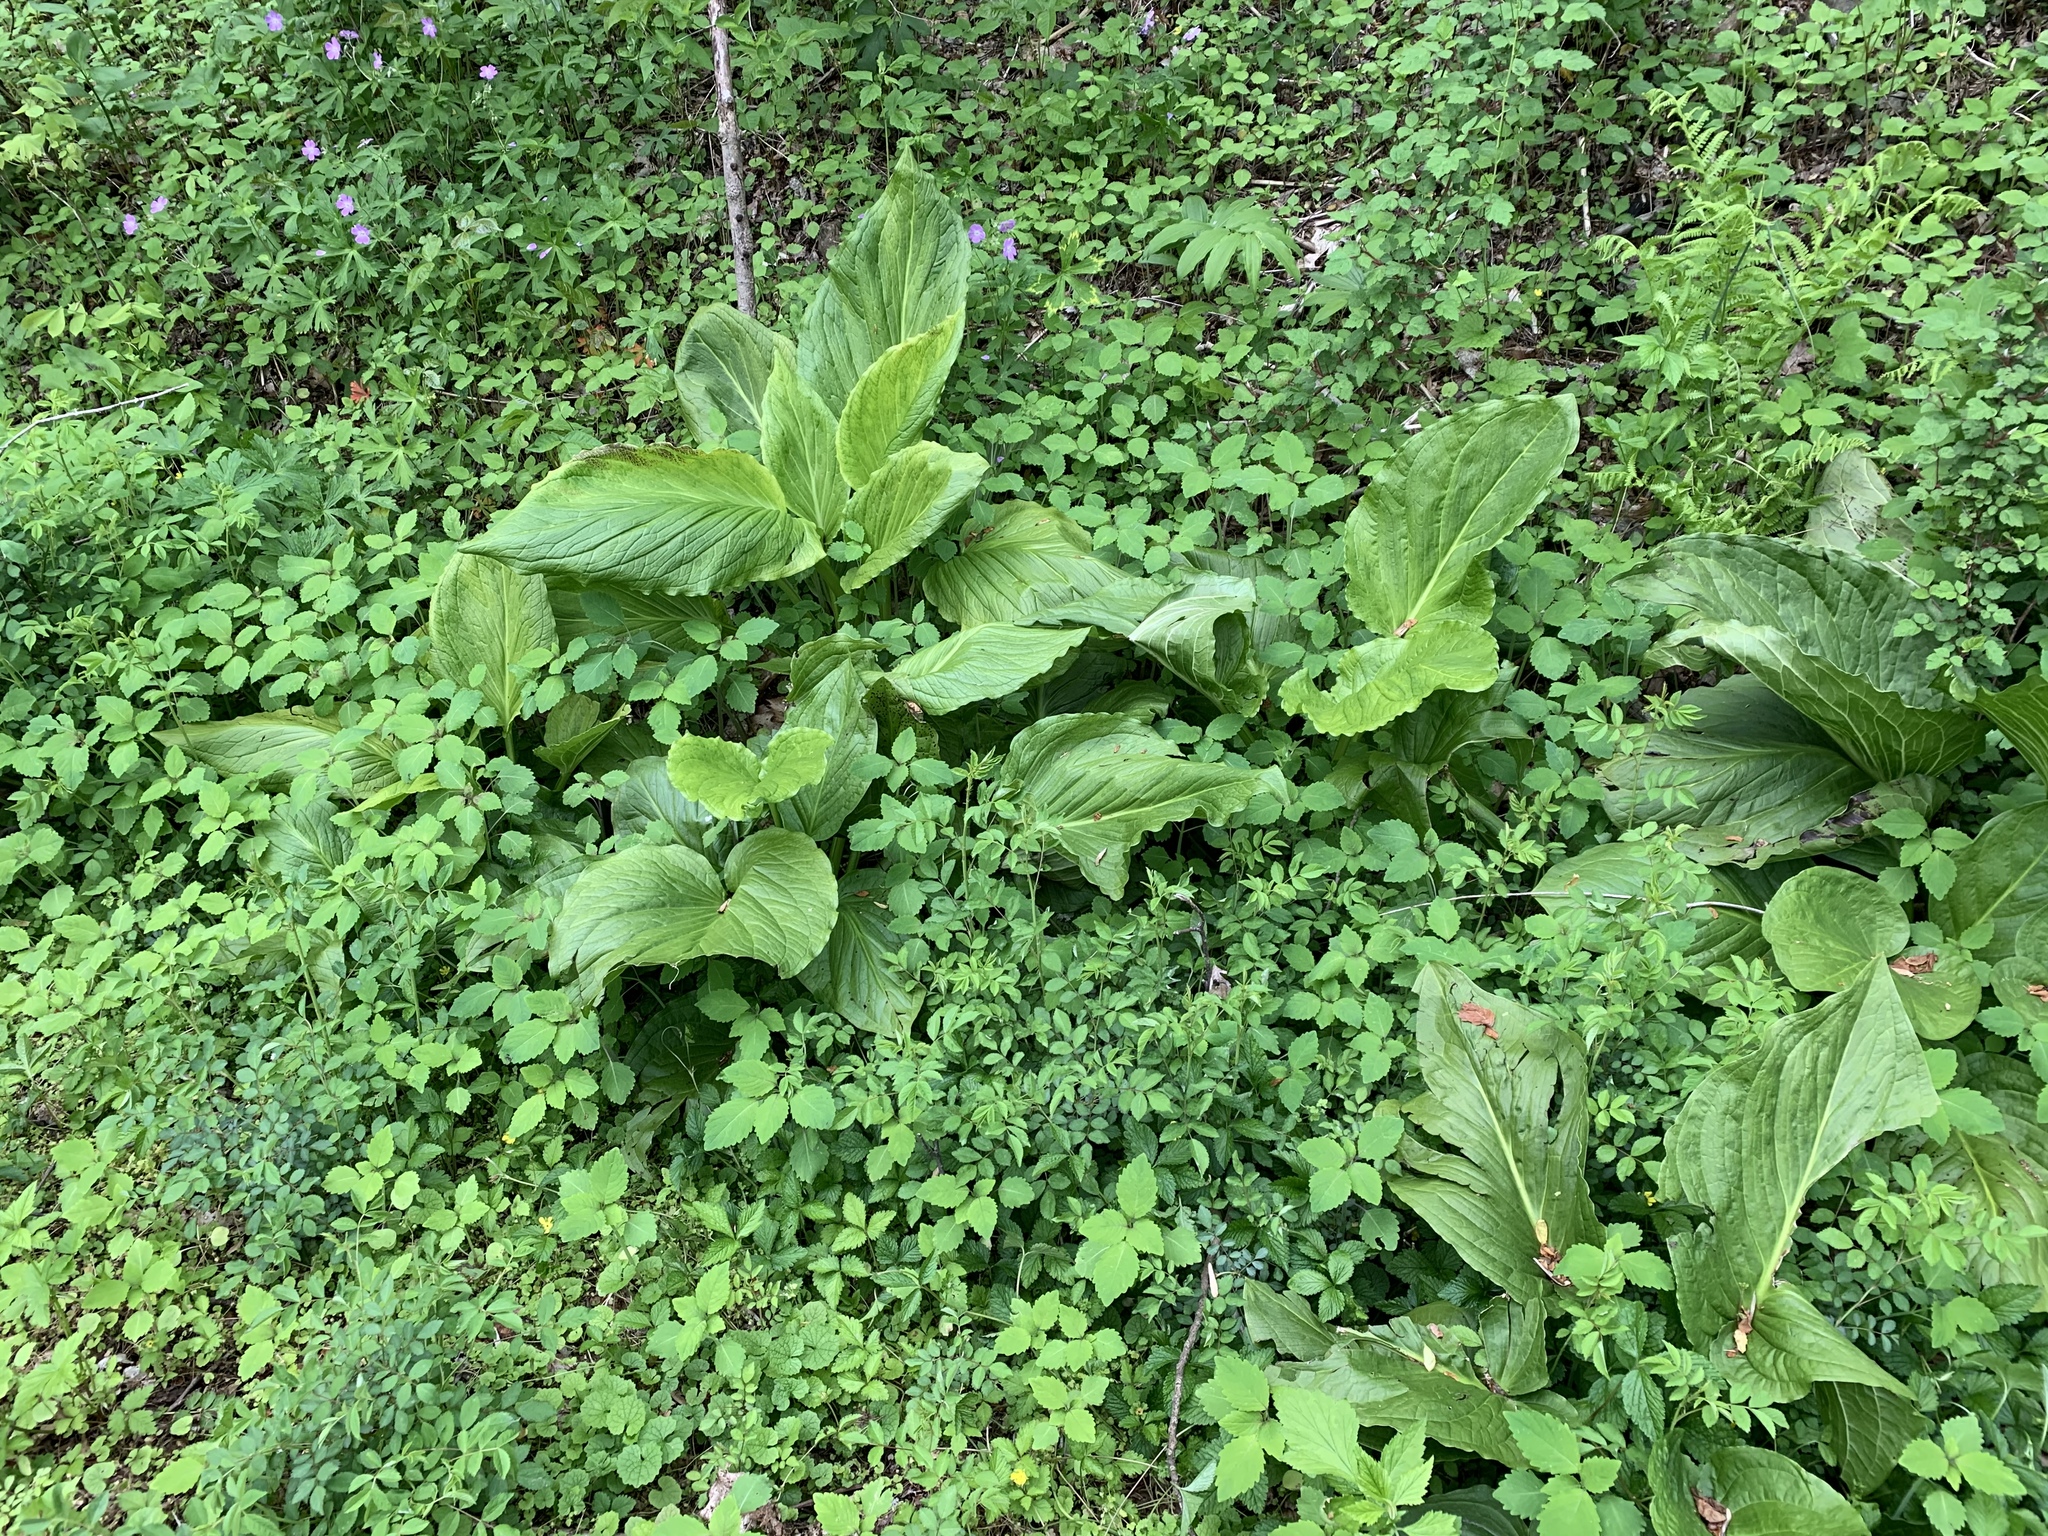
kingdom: Plantae
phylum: Tracheophyta
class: Liliopsida
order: Alismatales
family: Araceae
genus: Symplocarpus
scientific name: Symplocarpus foetidus
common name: Eastern skunk cabbage
